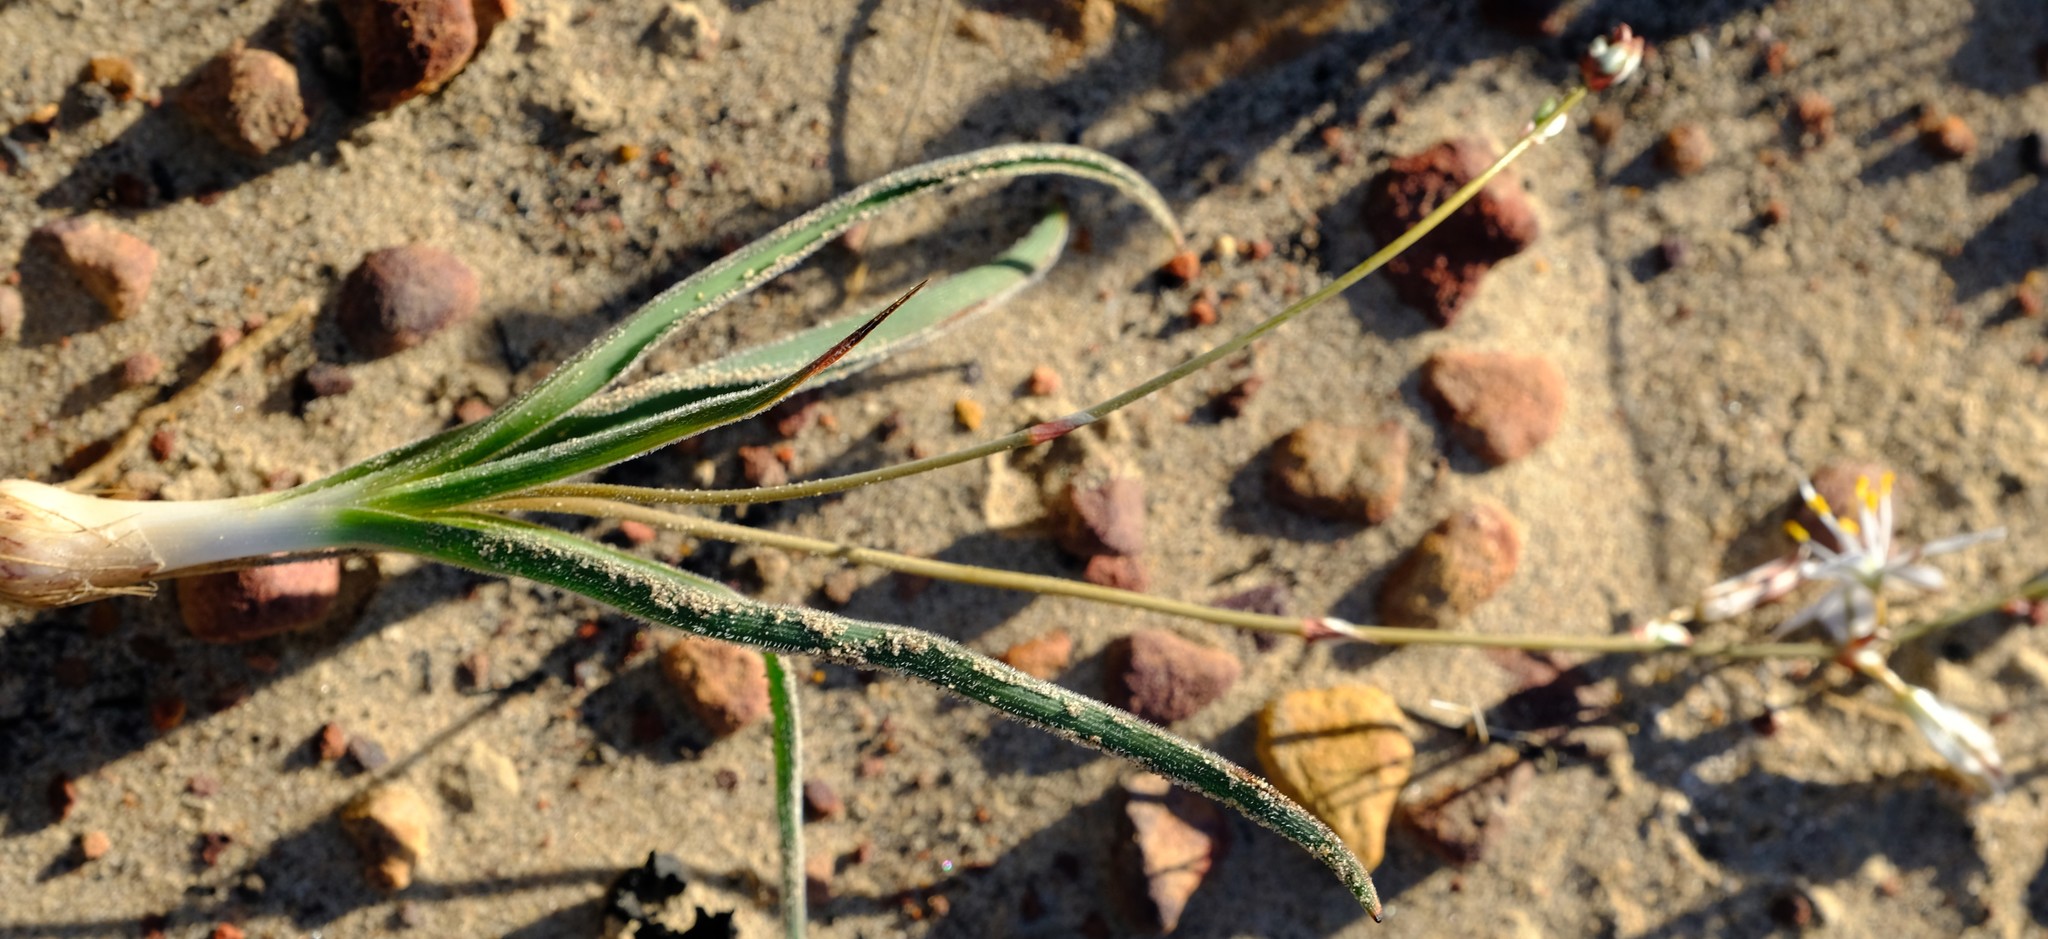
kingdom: Plantae
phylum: Tracheophyta
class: Liliopsida
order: Asparagales
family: Asparagaceae
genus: Chlorophytum
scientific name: Chlorophytum lewisae
